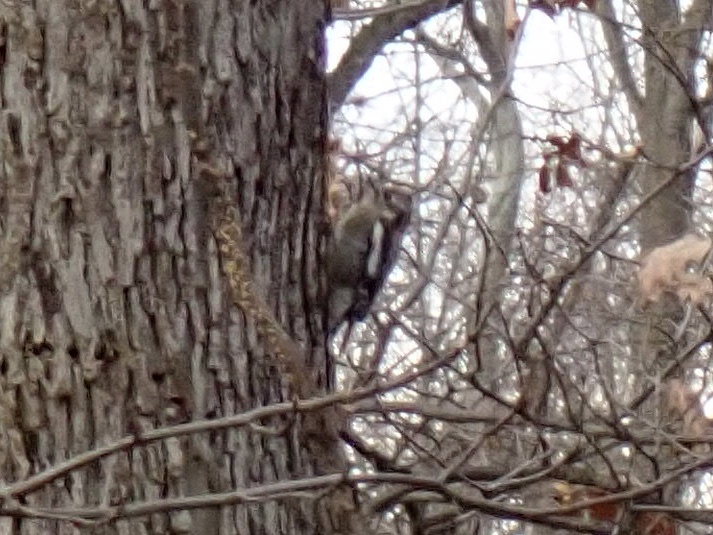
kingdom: Animalia
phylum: Chordata
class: Aves
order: Piciformes
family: Picidae
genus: Sphyrapicus
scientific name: Sphyrapicus varius
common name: Yellow-bellied sapsucker
